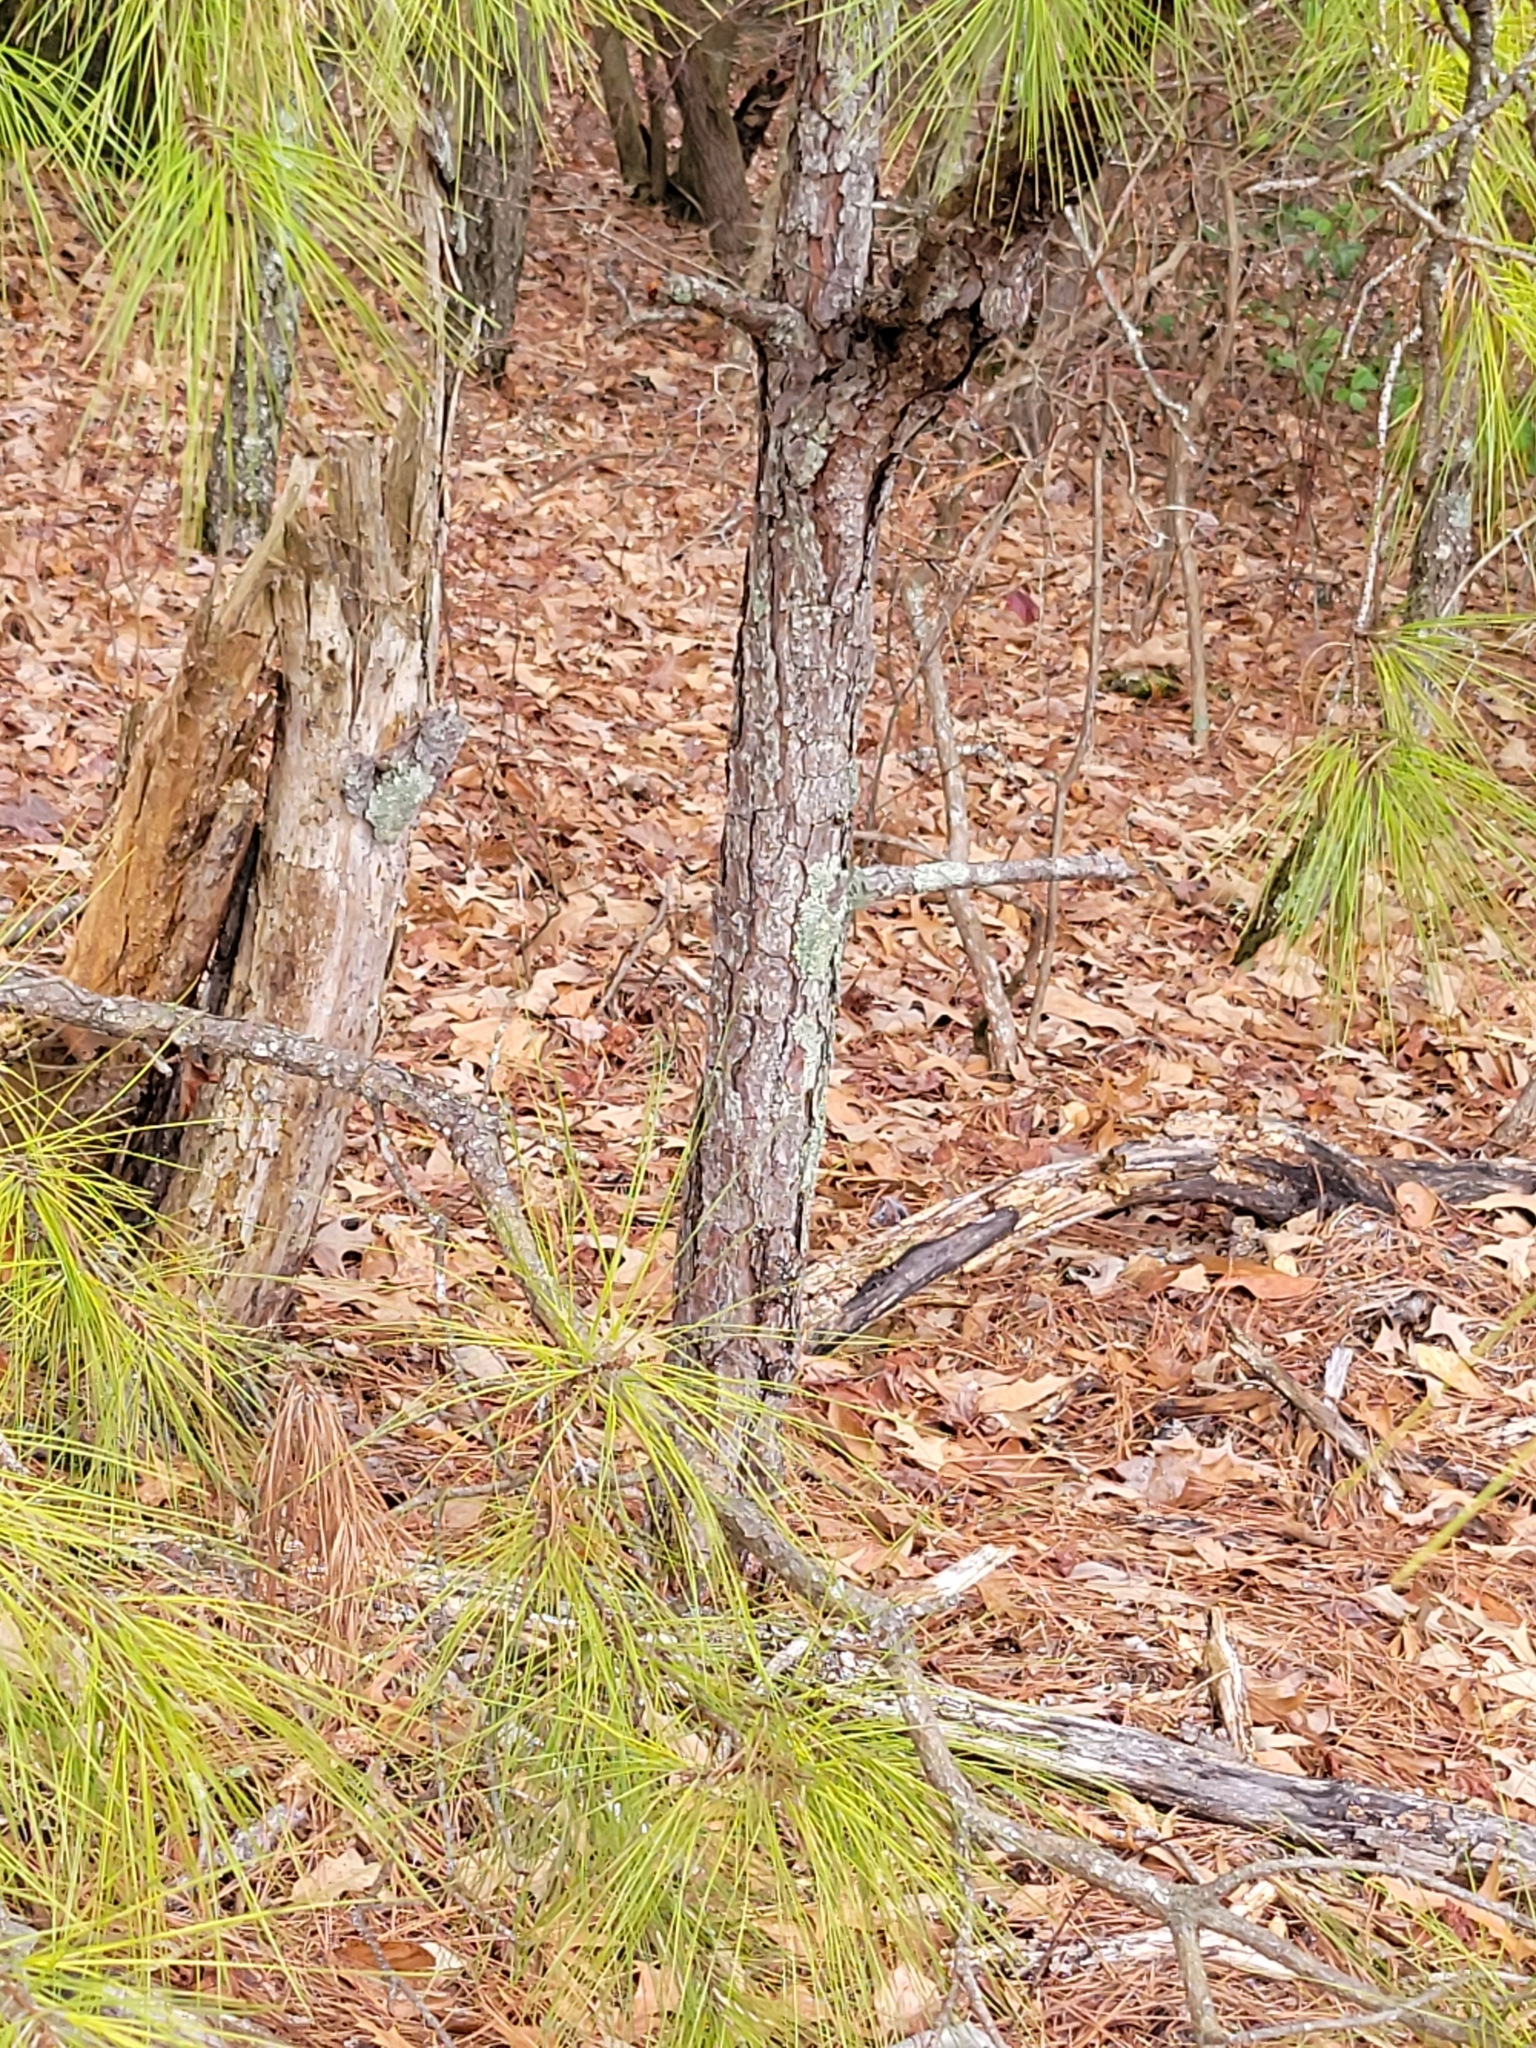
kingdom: Plantae
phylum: Tracheophyta
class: Pinopsida
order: Pinales
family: Pinaceae
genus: Pinus
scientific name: Pinus taeda
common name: Loblolly pine
